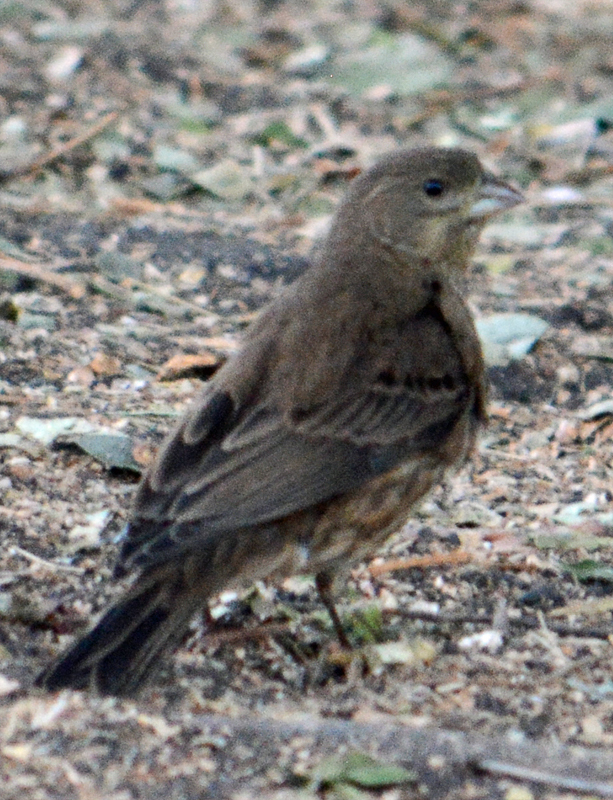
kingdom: Animalia
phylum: Chordata
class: Aves
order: Passeriformes
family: Fringillidae
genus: Haemorhous
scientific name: Haemorhous mexicanus
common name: House finch
